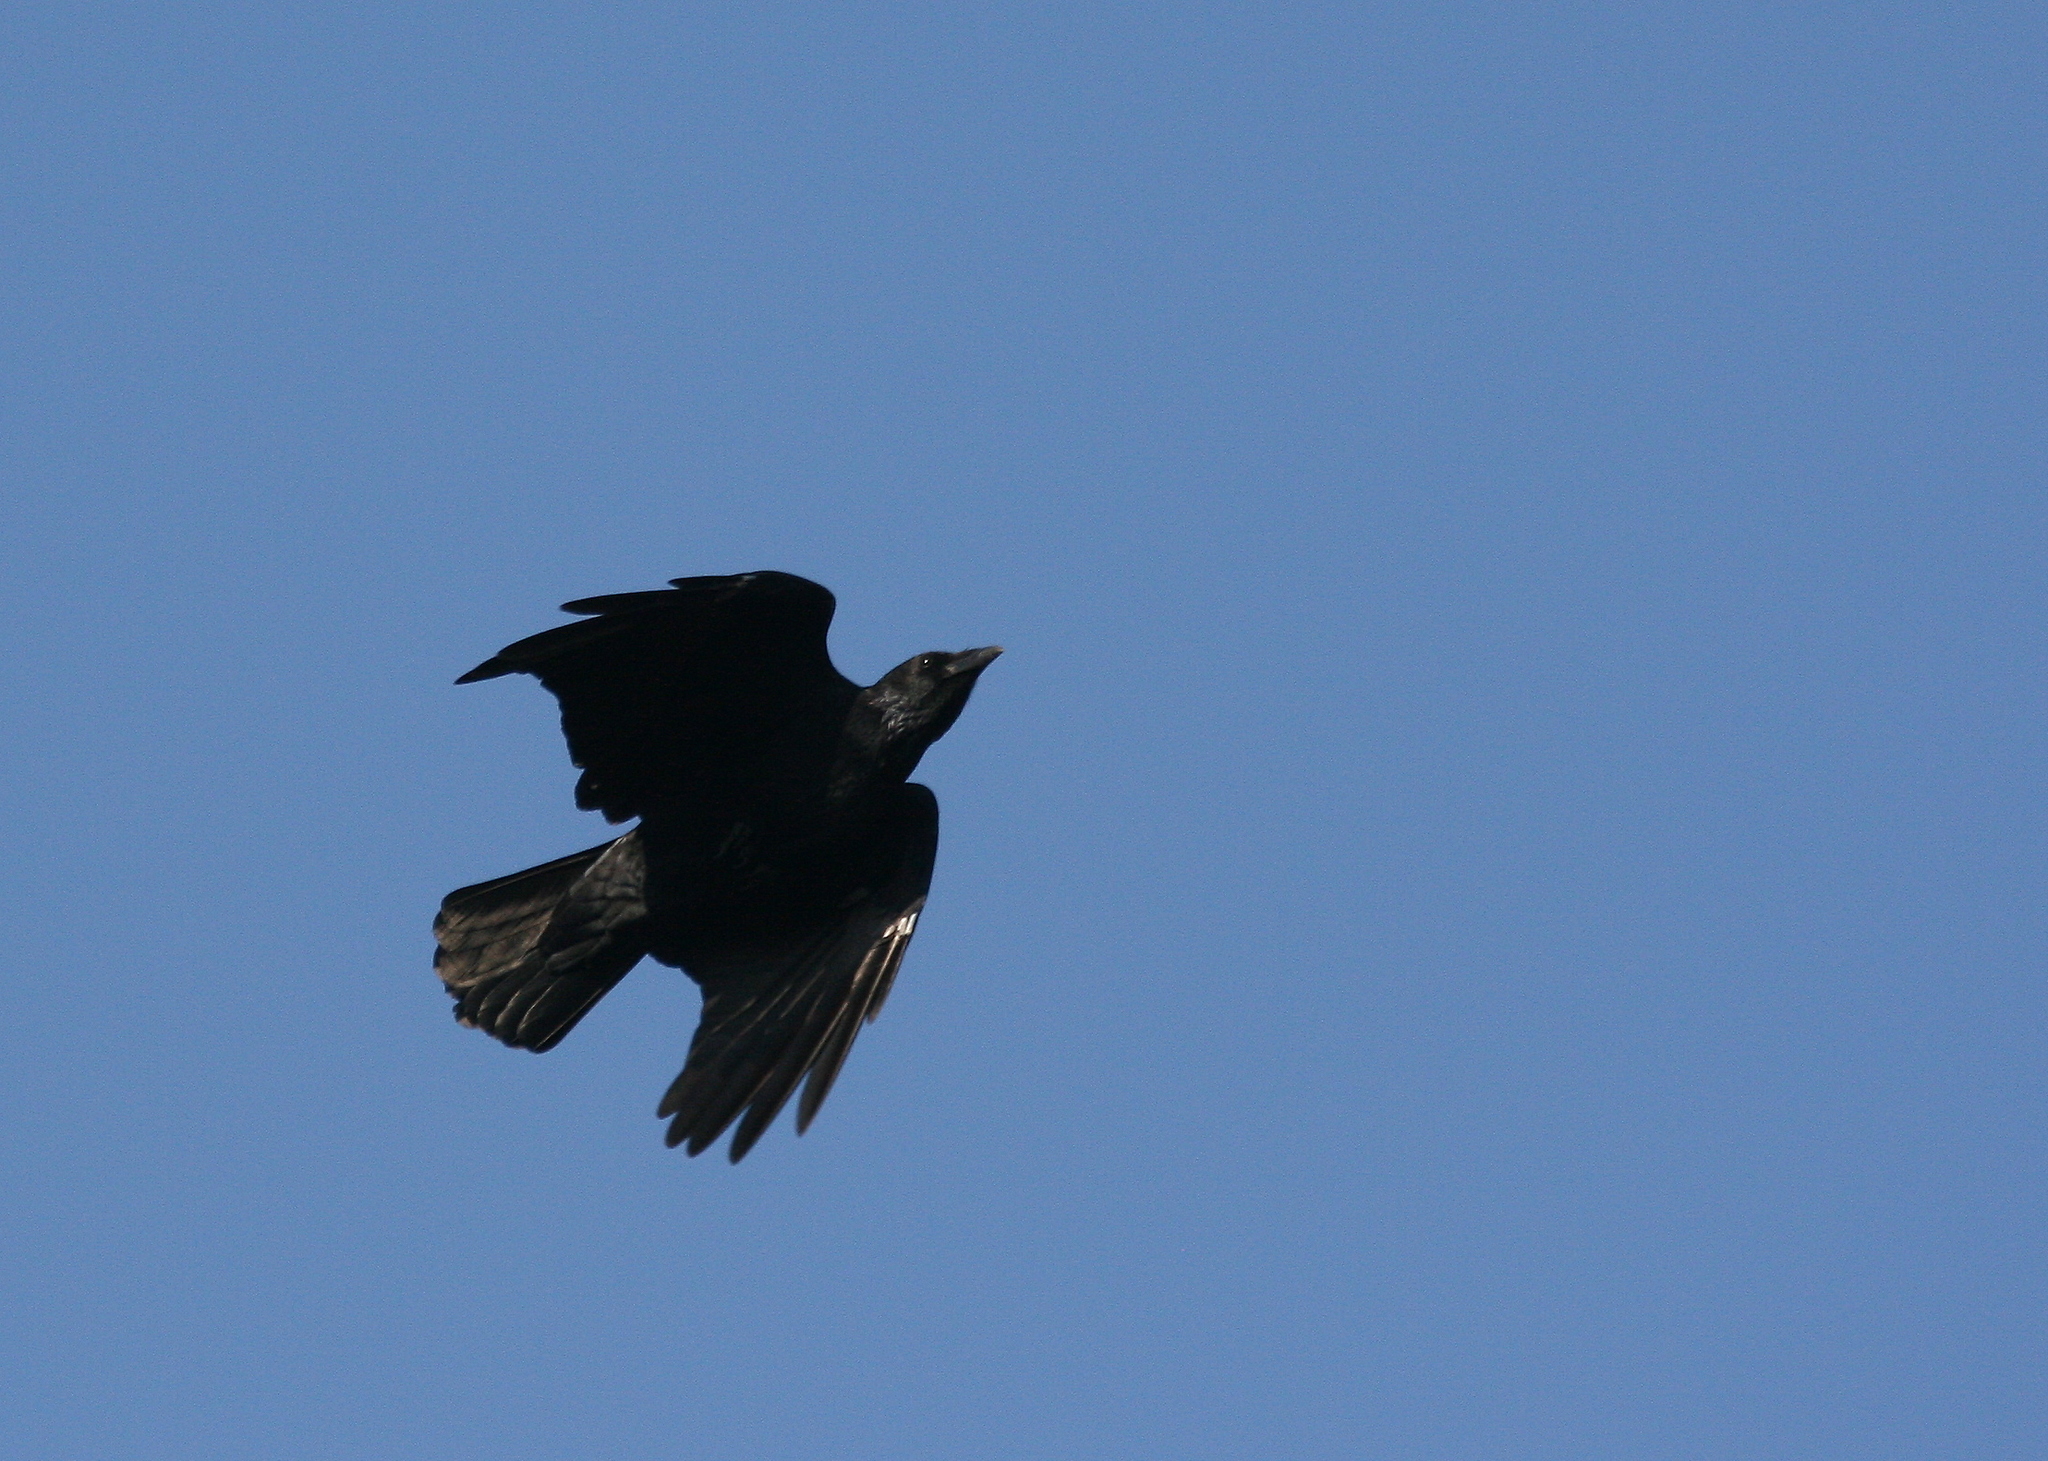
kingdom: Animalia
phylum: Chordata
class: Aves
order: Passeriformes
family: Corvidae
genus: Corvus
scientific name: Corvus corone
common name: Carrion crow
